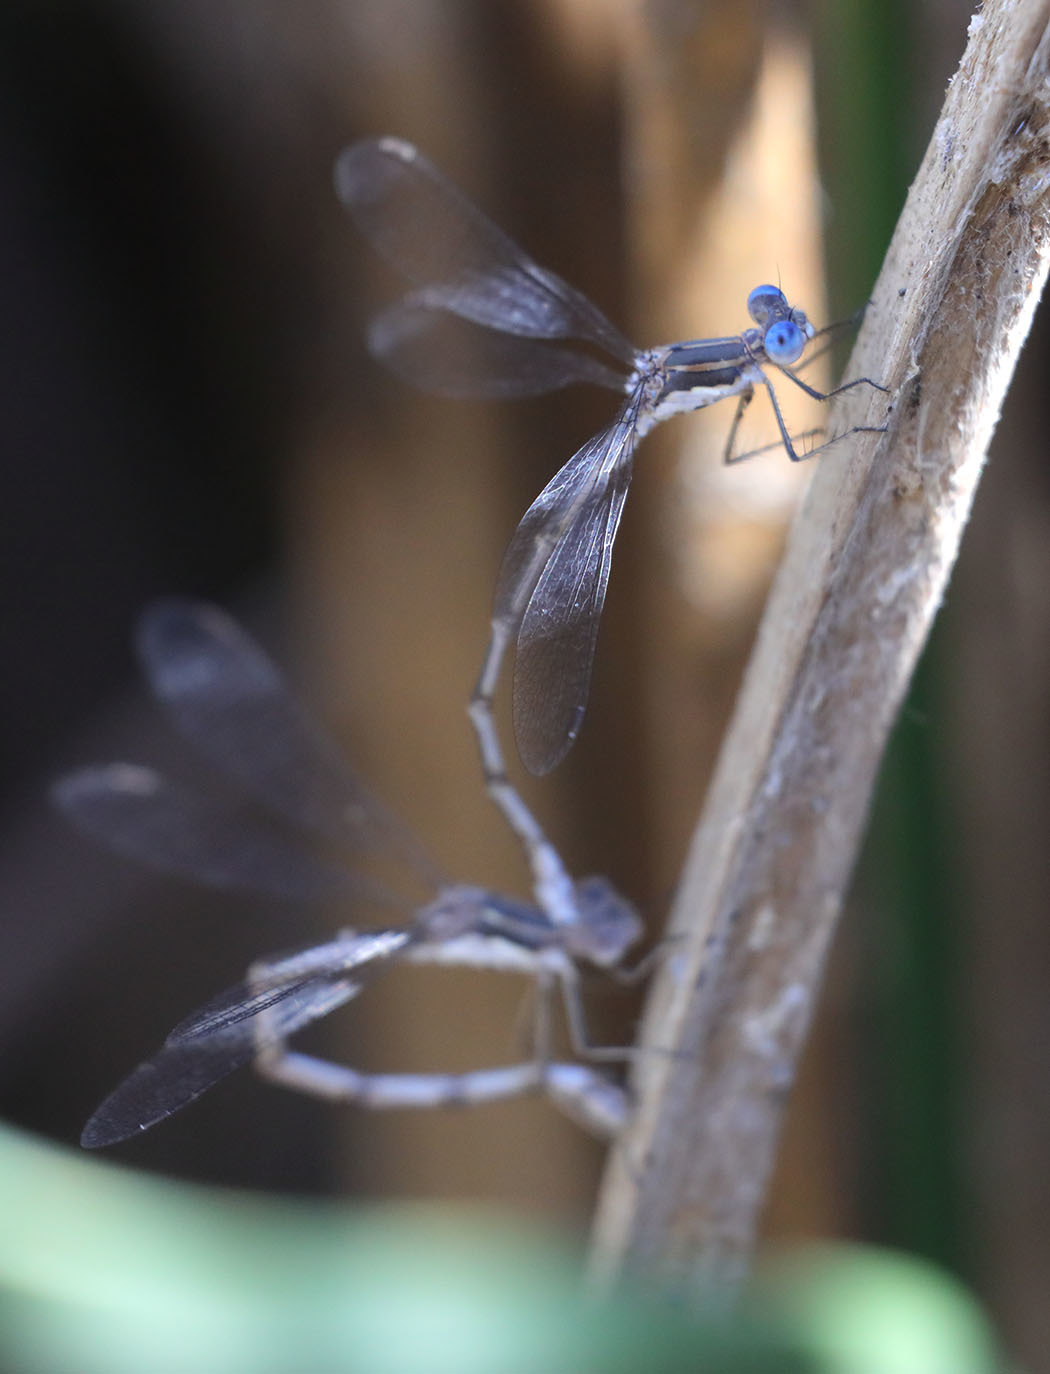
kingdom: Animalia
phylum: Arthropoda
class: Insecta
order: Odonata
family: Lestidae
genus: Lestes
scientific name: Lestes congener
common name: Spotted spreadwing
